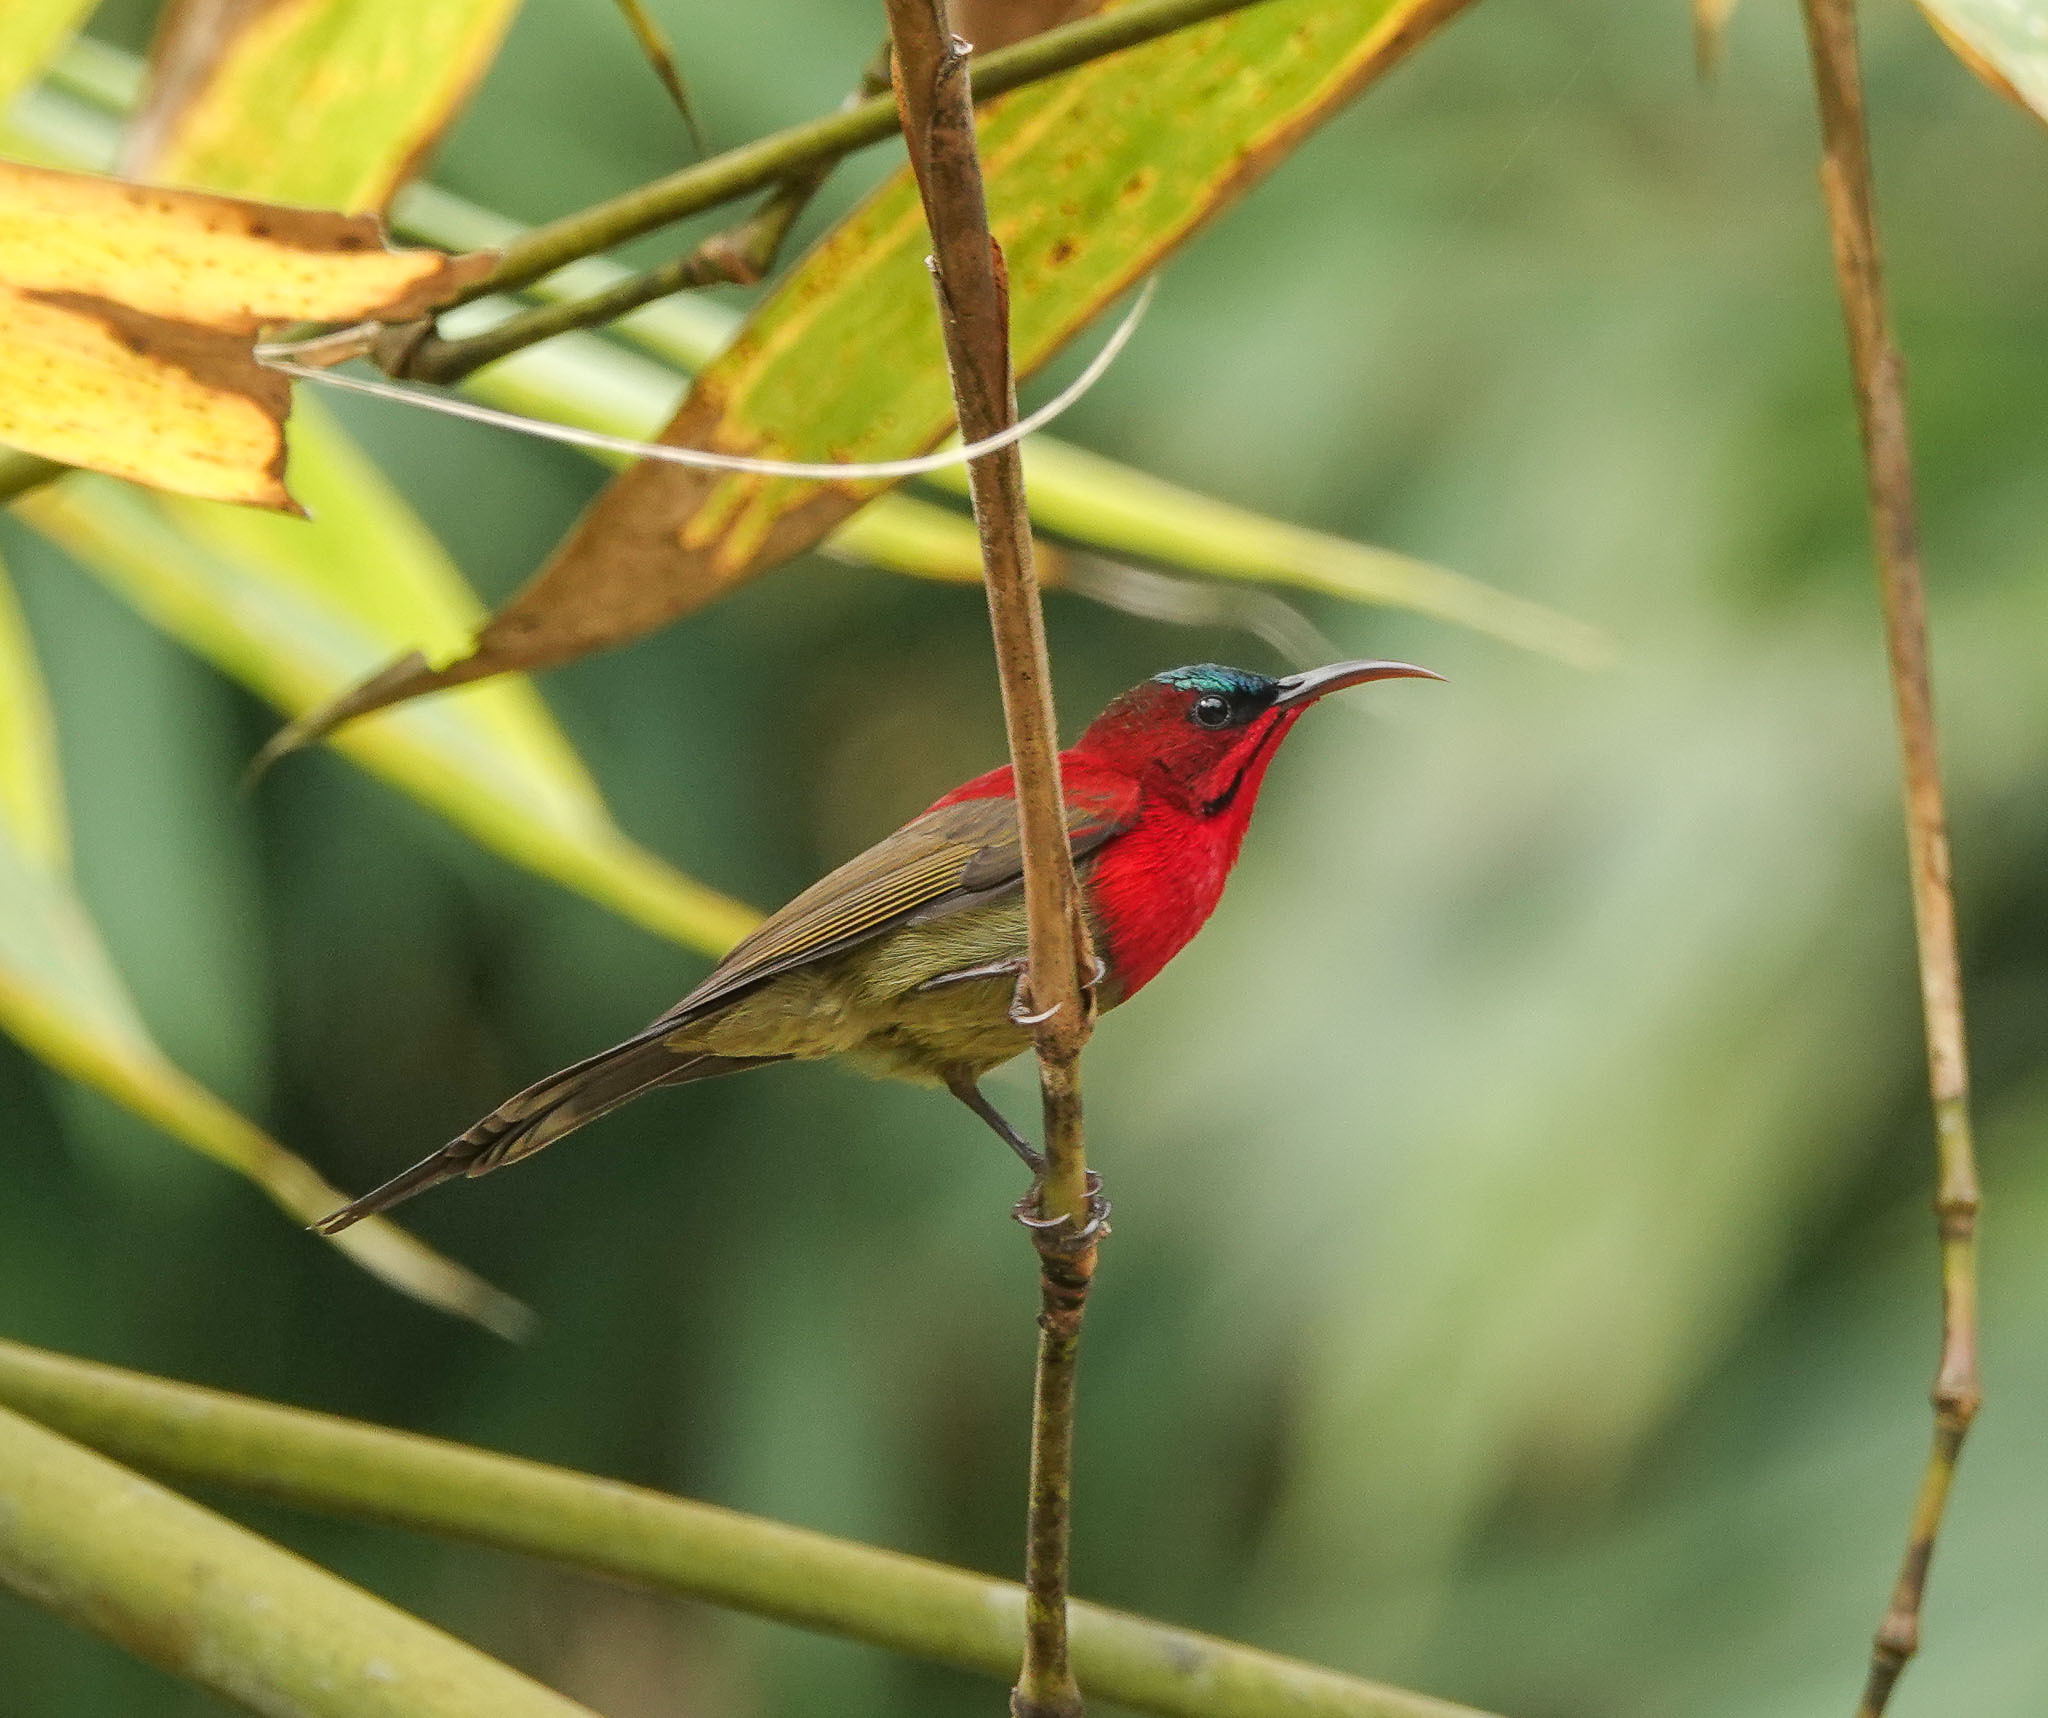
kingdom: Animalia
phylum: Chordata
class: Aves
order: Passeriformes
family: Nectariniidae
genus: Aethopyga
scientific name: Aethopyga siparaja
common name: Crimson sunbird
